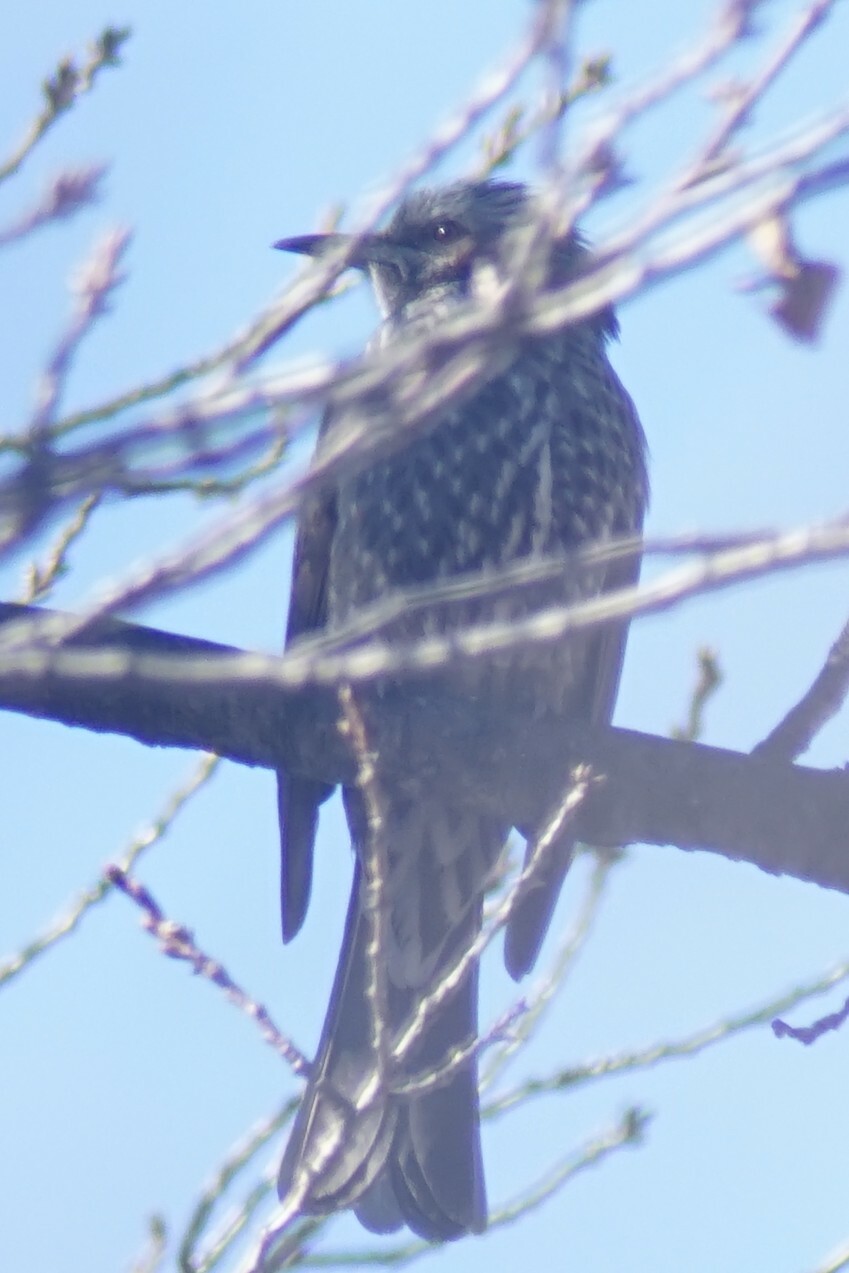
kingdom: Animalia
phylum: Chordata
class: Aves
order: Passeriformes
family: Pycnonotidae
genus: Hypsipetes
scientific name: Hypsipetes amaurotis
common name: Brown-eared bulbul
